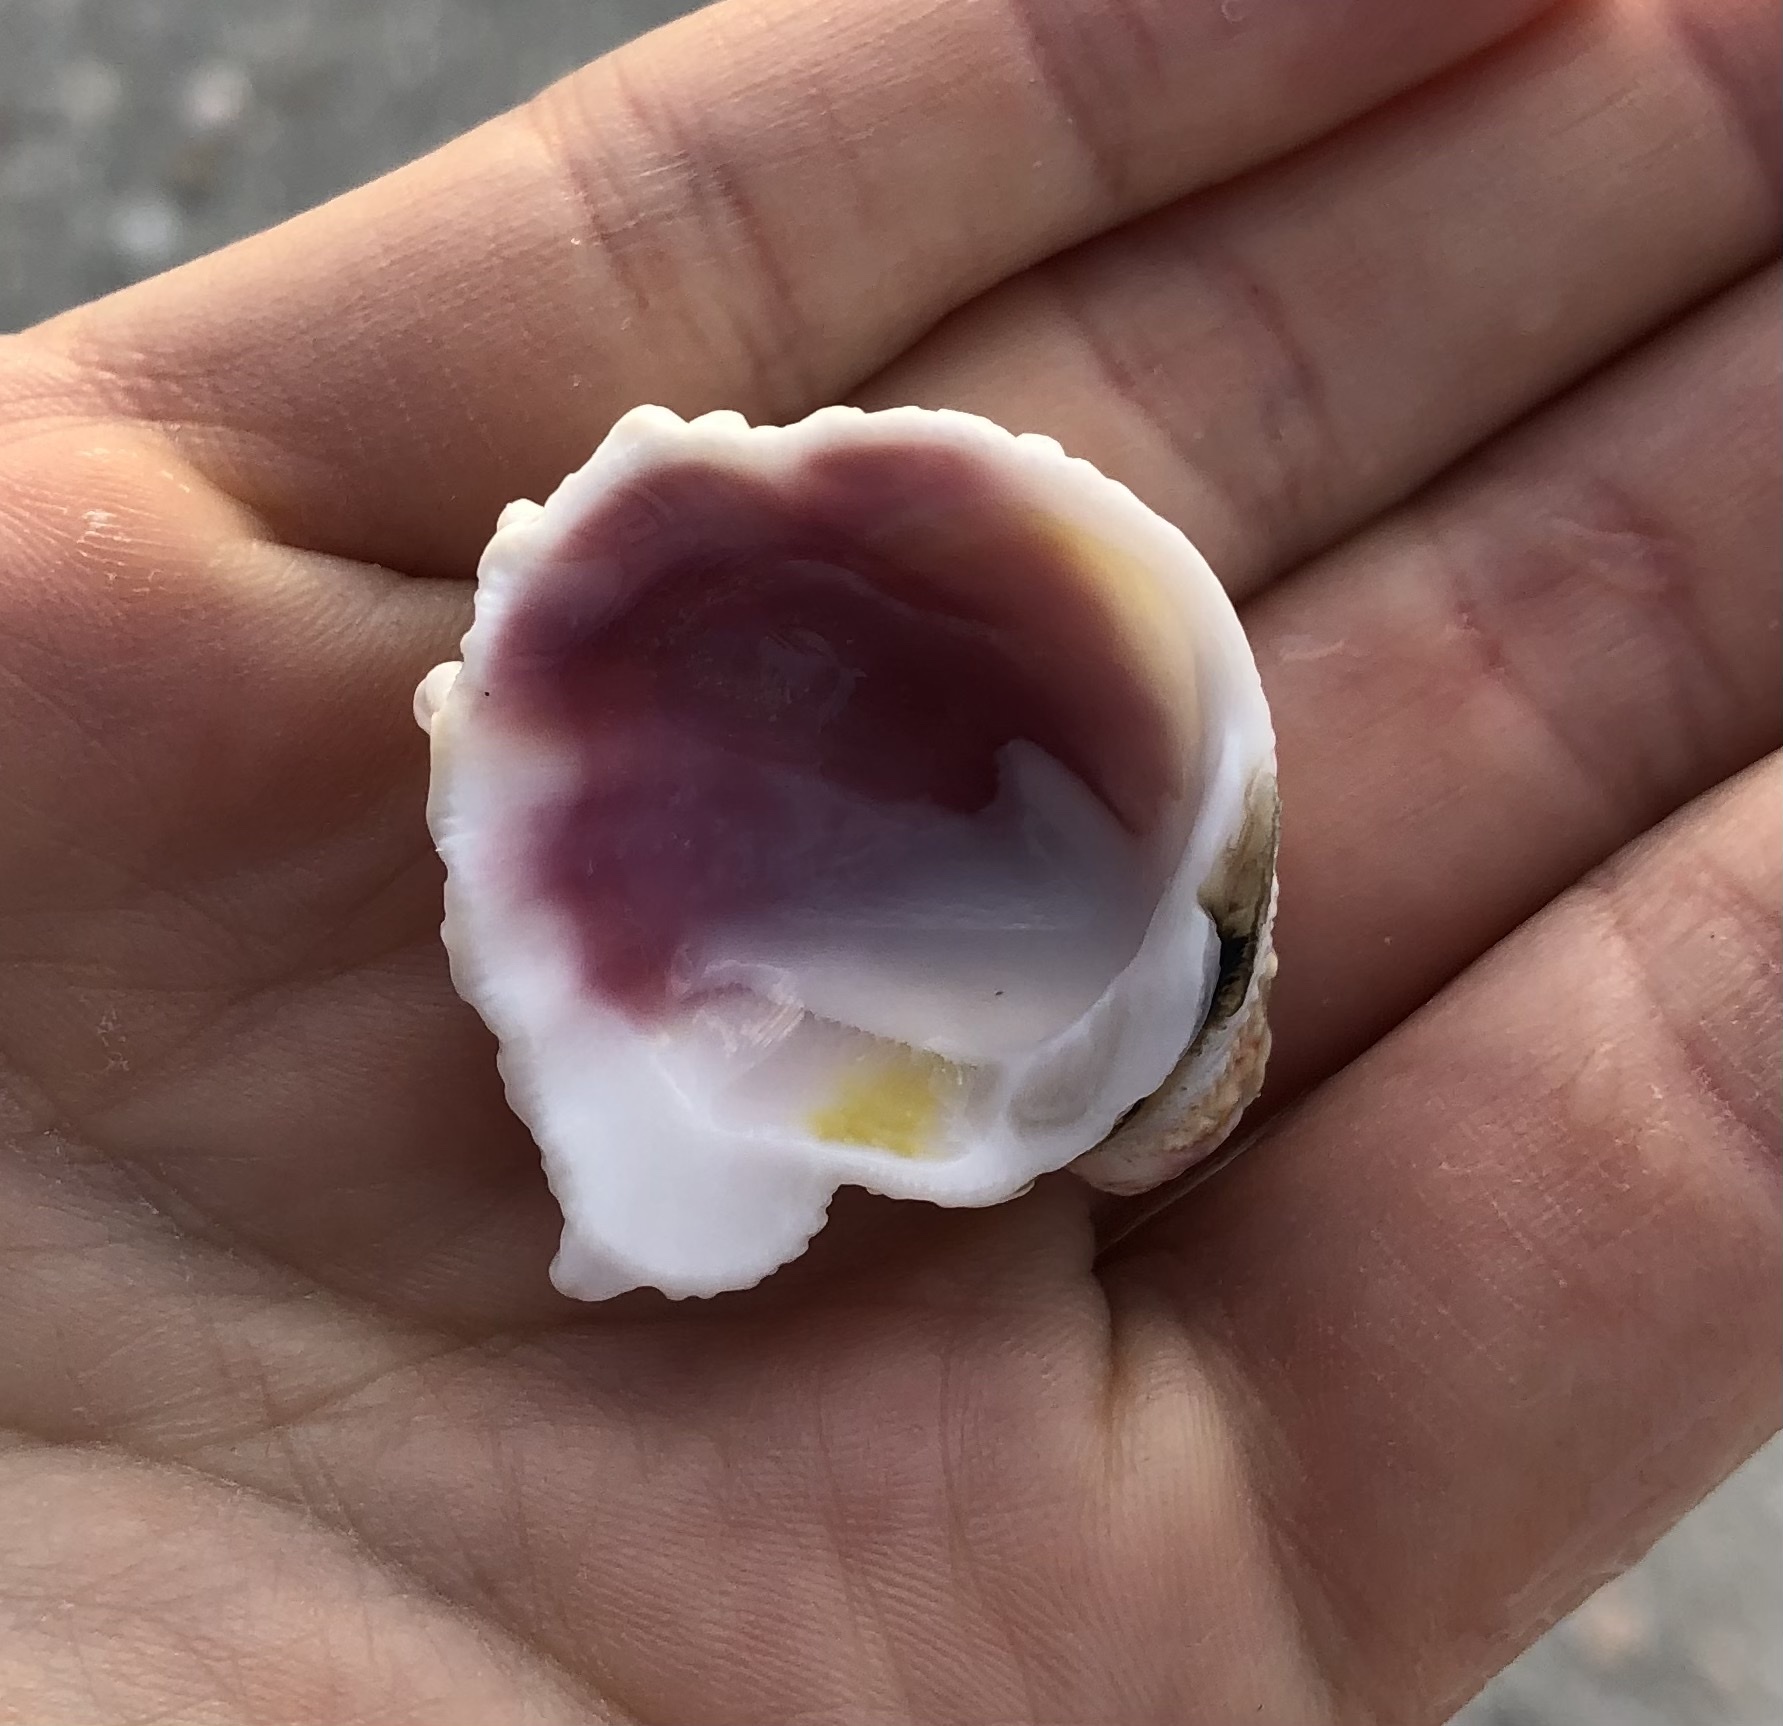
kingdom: Animalia
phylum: Mollusca
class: Bivalvia
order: Venerida
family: Chamidae
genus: Arcinella
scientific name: Arcinella cornuta
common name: Florida spiny jewel box
